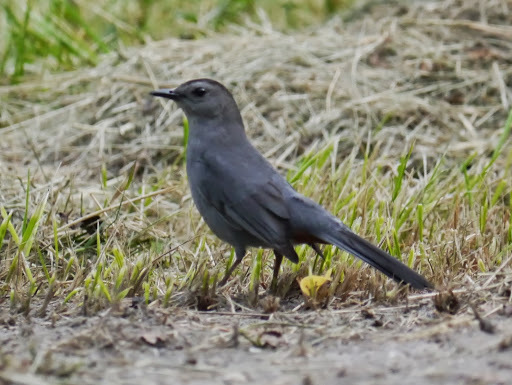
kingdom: Animalia
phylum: Chordata
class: Aves
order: Passeriformes
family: Mimidae
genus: Dumetella
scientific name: Dumetella carolinensis
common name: Gray catbird
